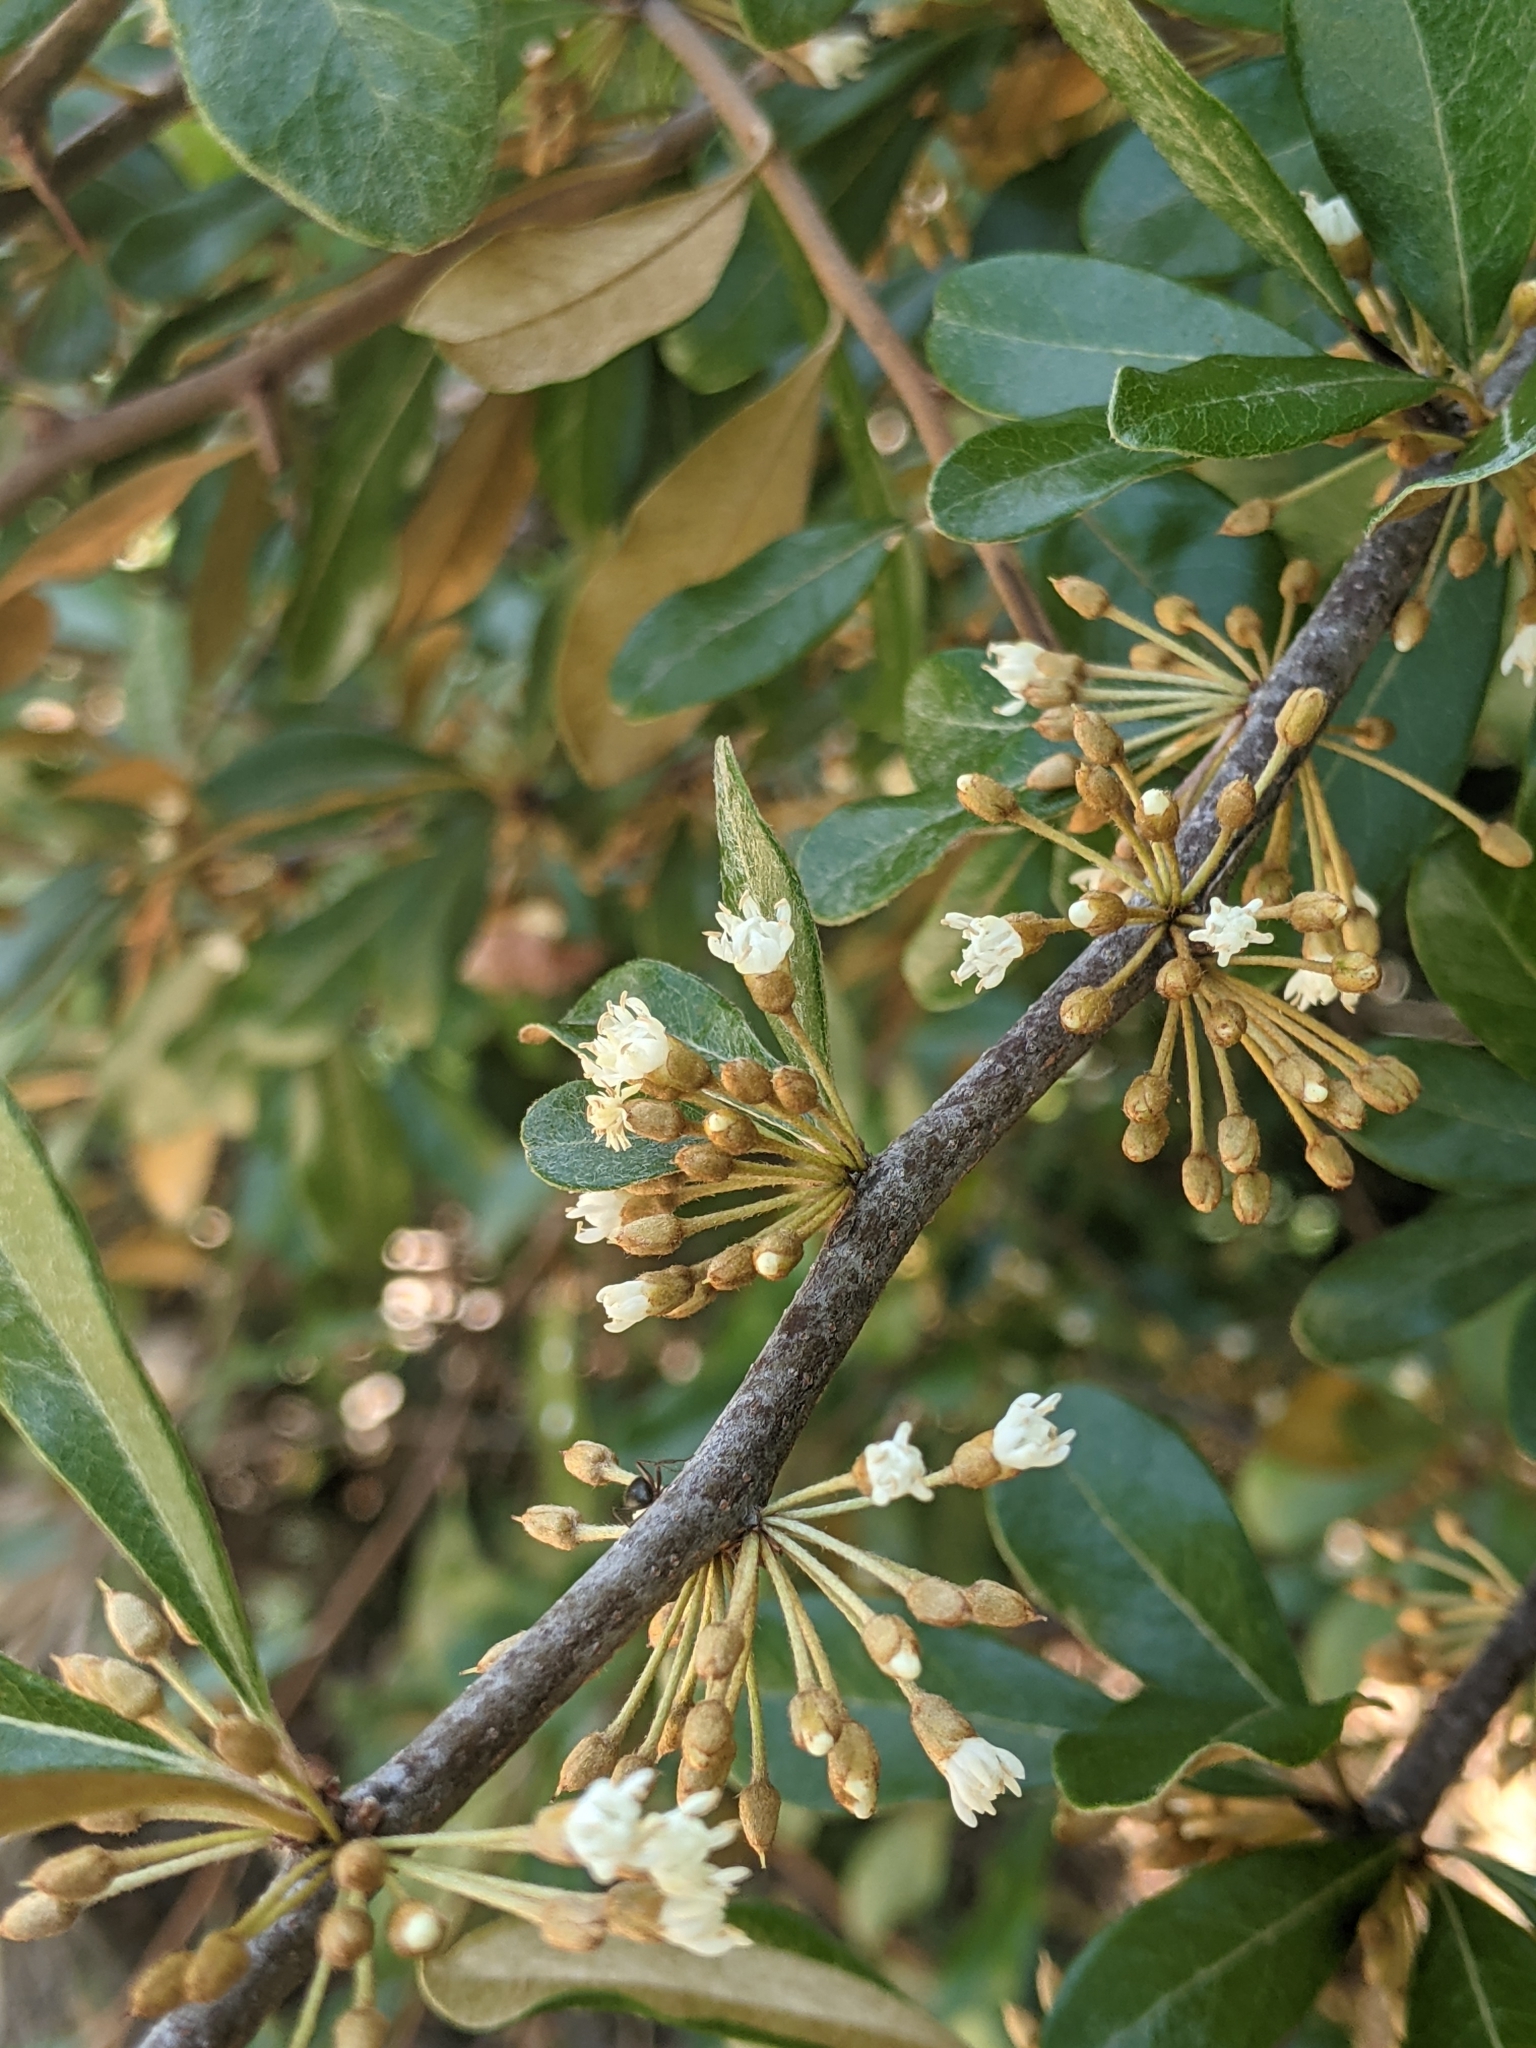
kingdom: Plantae
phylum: Tracheophyta
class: Magnoliopsida
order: Ericales
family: Sapotaceae
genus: Sideroxylon
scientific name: Sideroxylon tenax
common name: Tough-buckthorn
